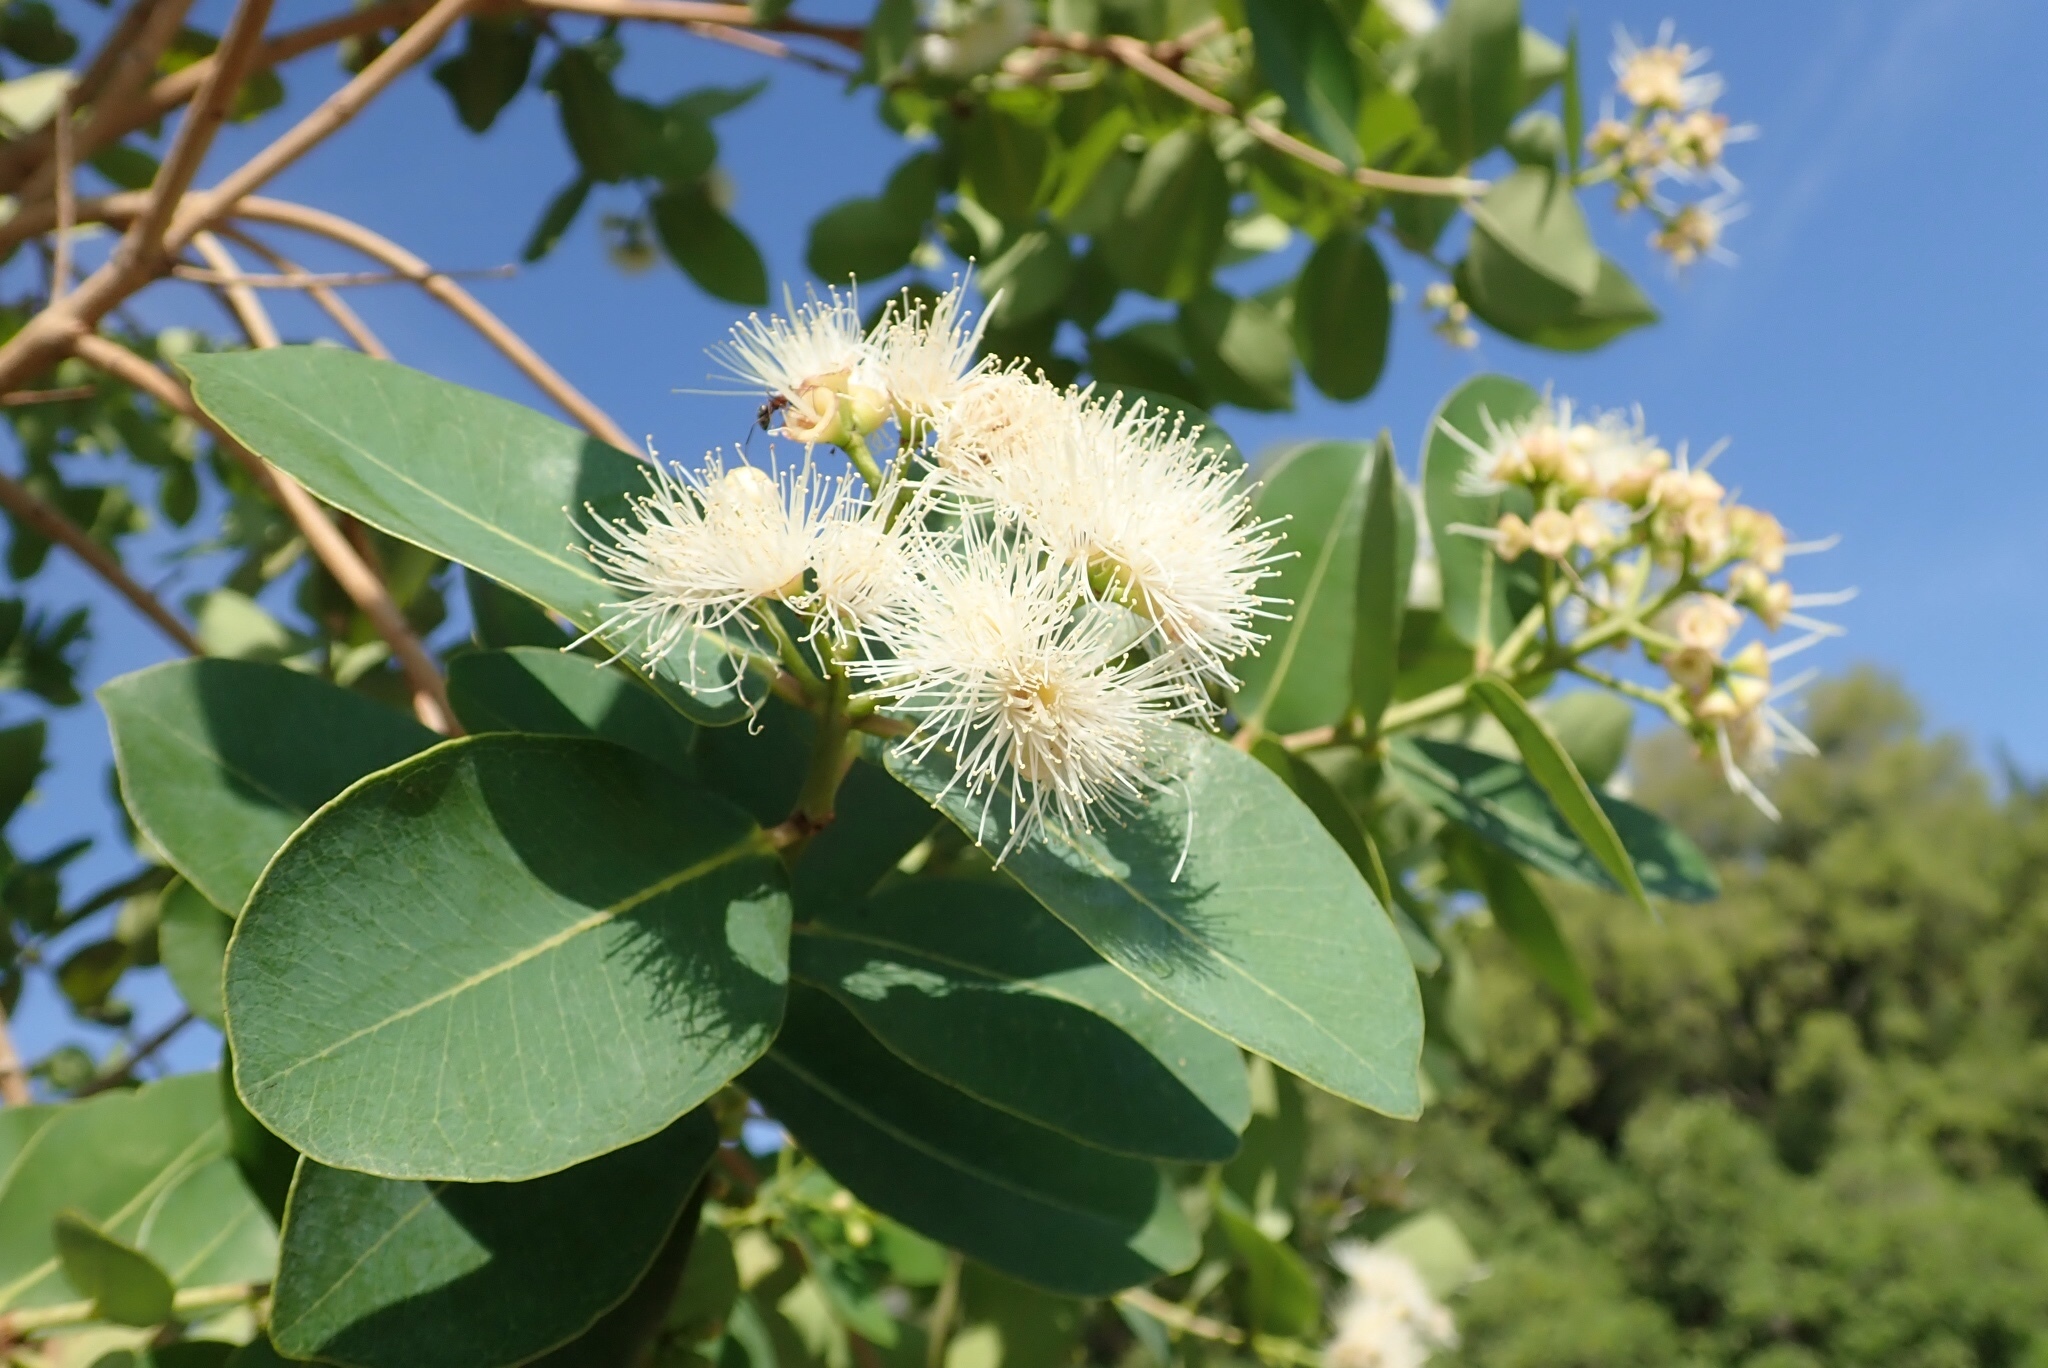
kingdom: Plantae
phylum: Tracheophyta
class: Magnoliopsida
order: Myrtales
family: Myrtaceae
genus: Syzygium
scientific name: Syzygium cordatum
